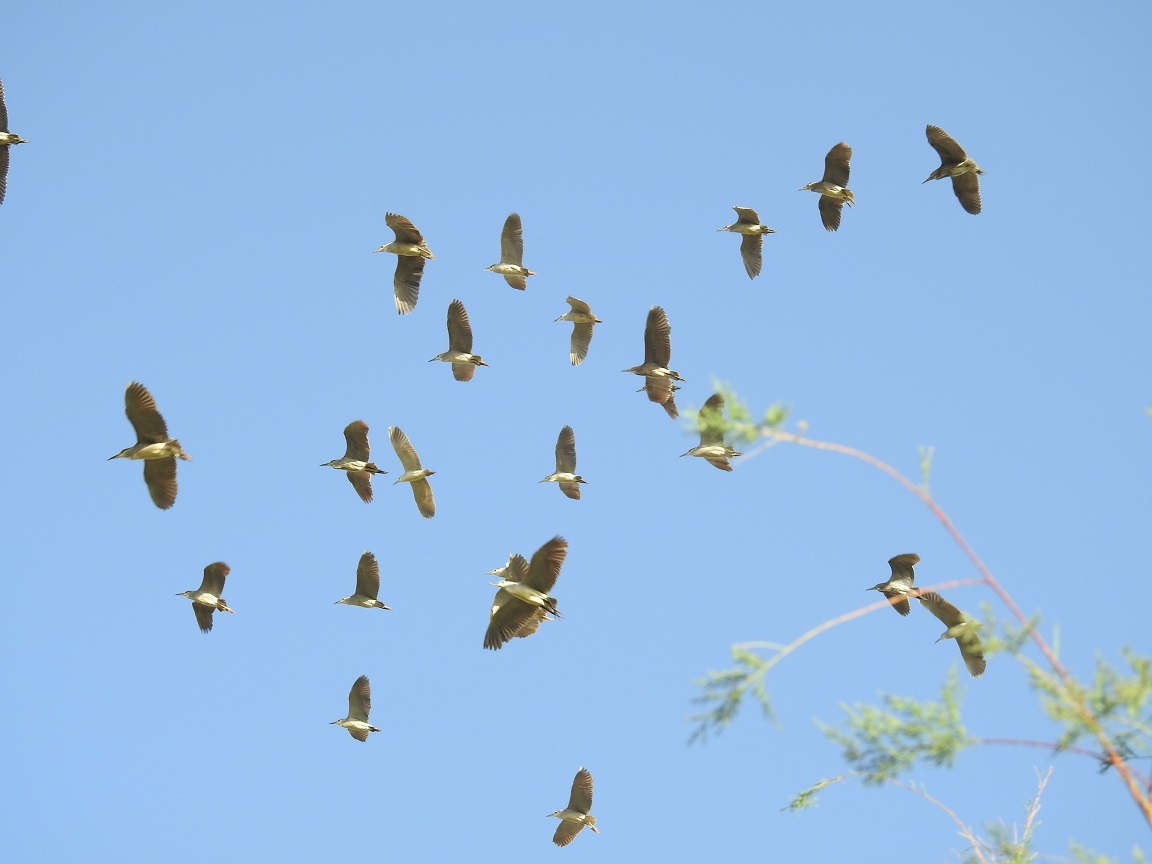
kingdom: Animalia
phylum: Chordata
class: Aves
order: Pelecaniformes
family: Ardeidae
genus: Nycticorax
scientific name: Nycticorax nycticorax
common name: Black-crowned night heron
